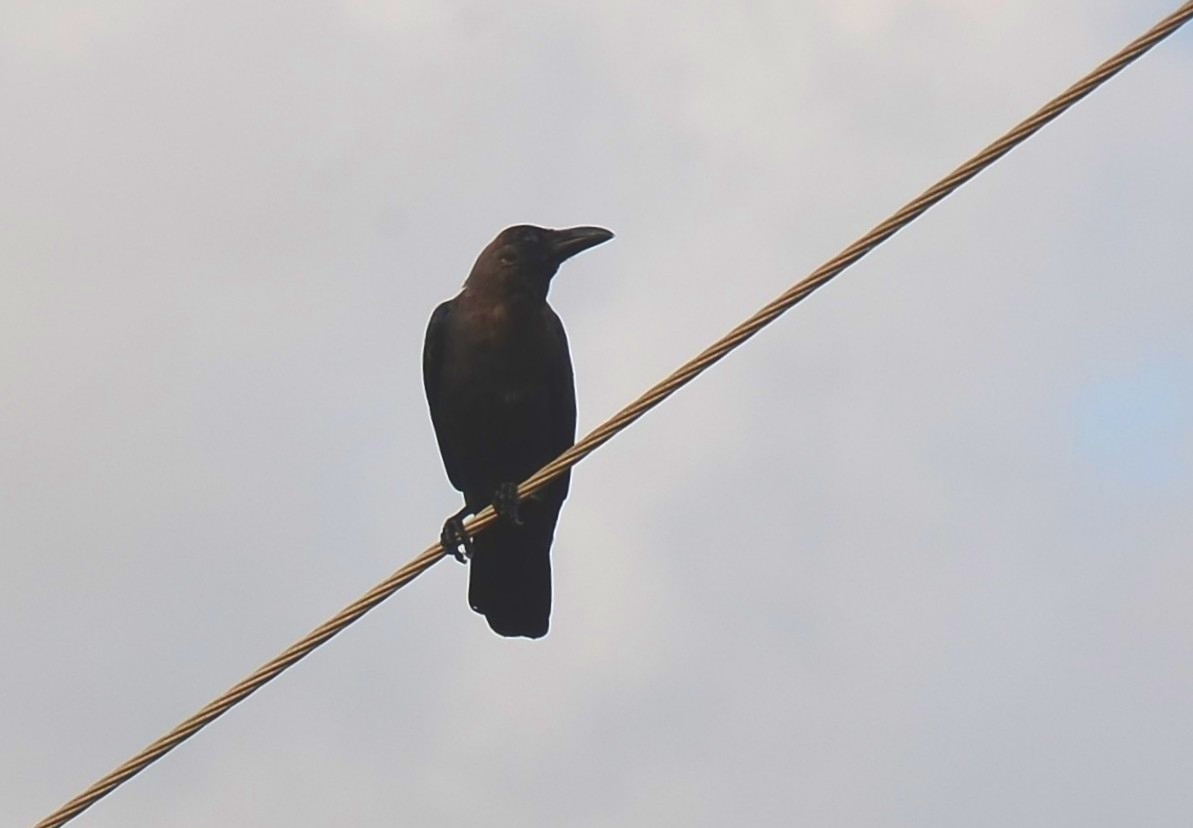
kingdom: Animalia
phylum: Chordata
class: Aves
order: Passeriformes
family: Corvidae
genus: Corvus
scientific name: Corvus splendens
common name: House crow
